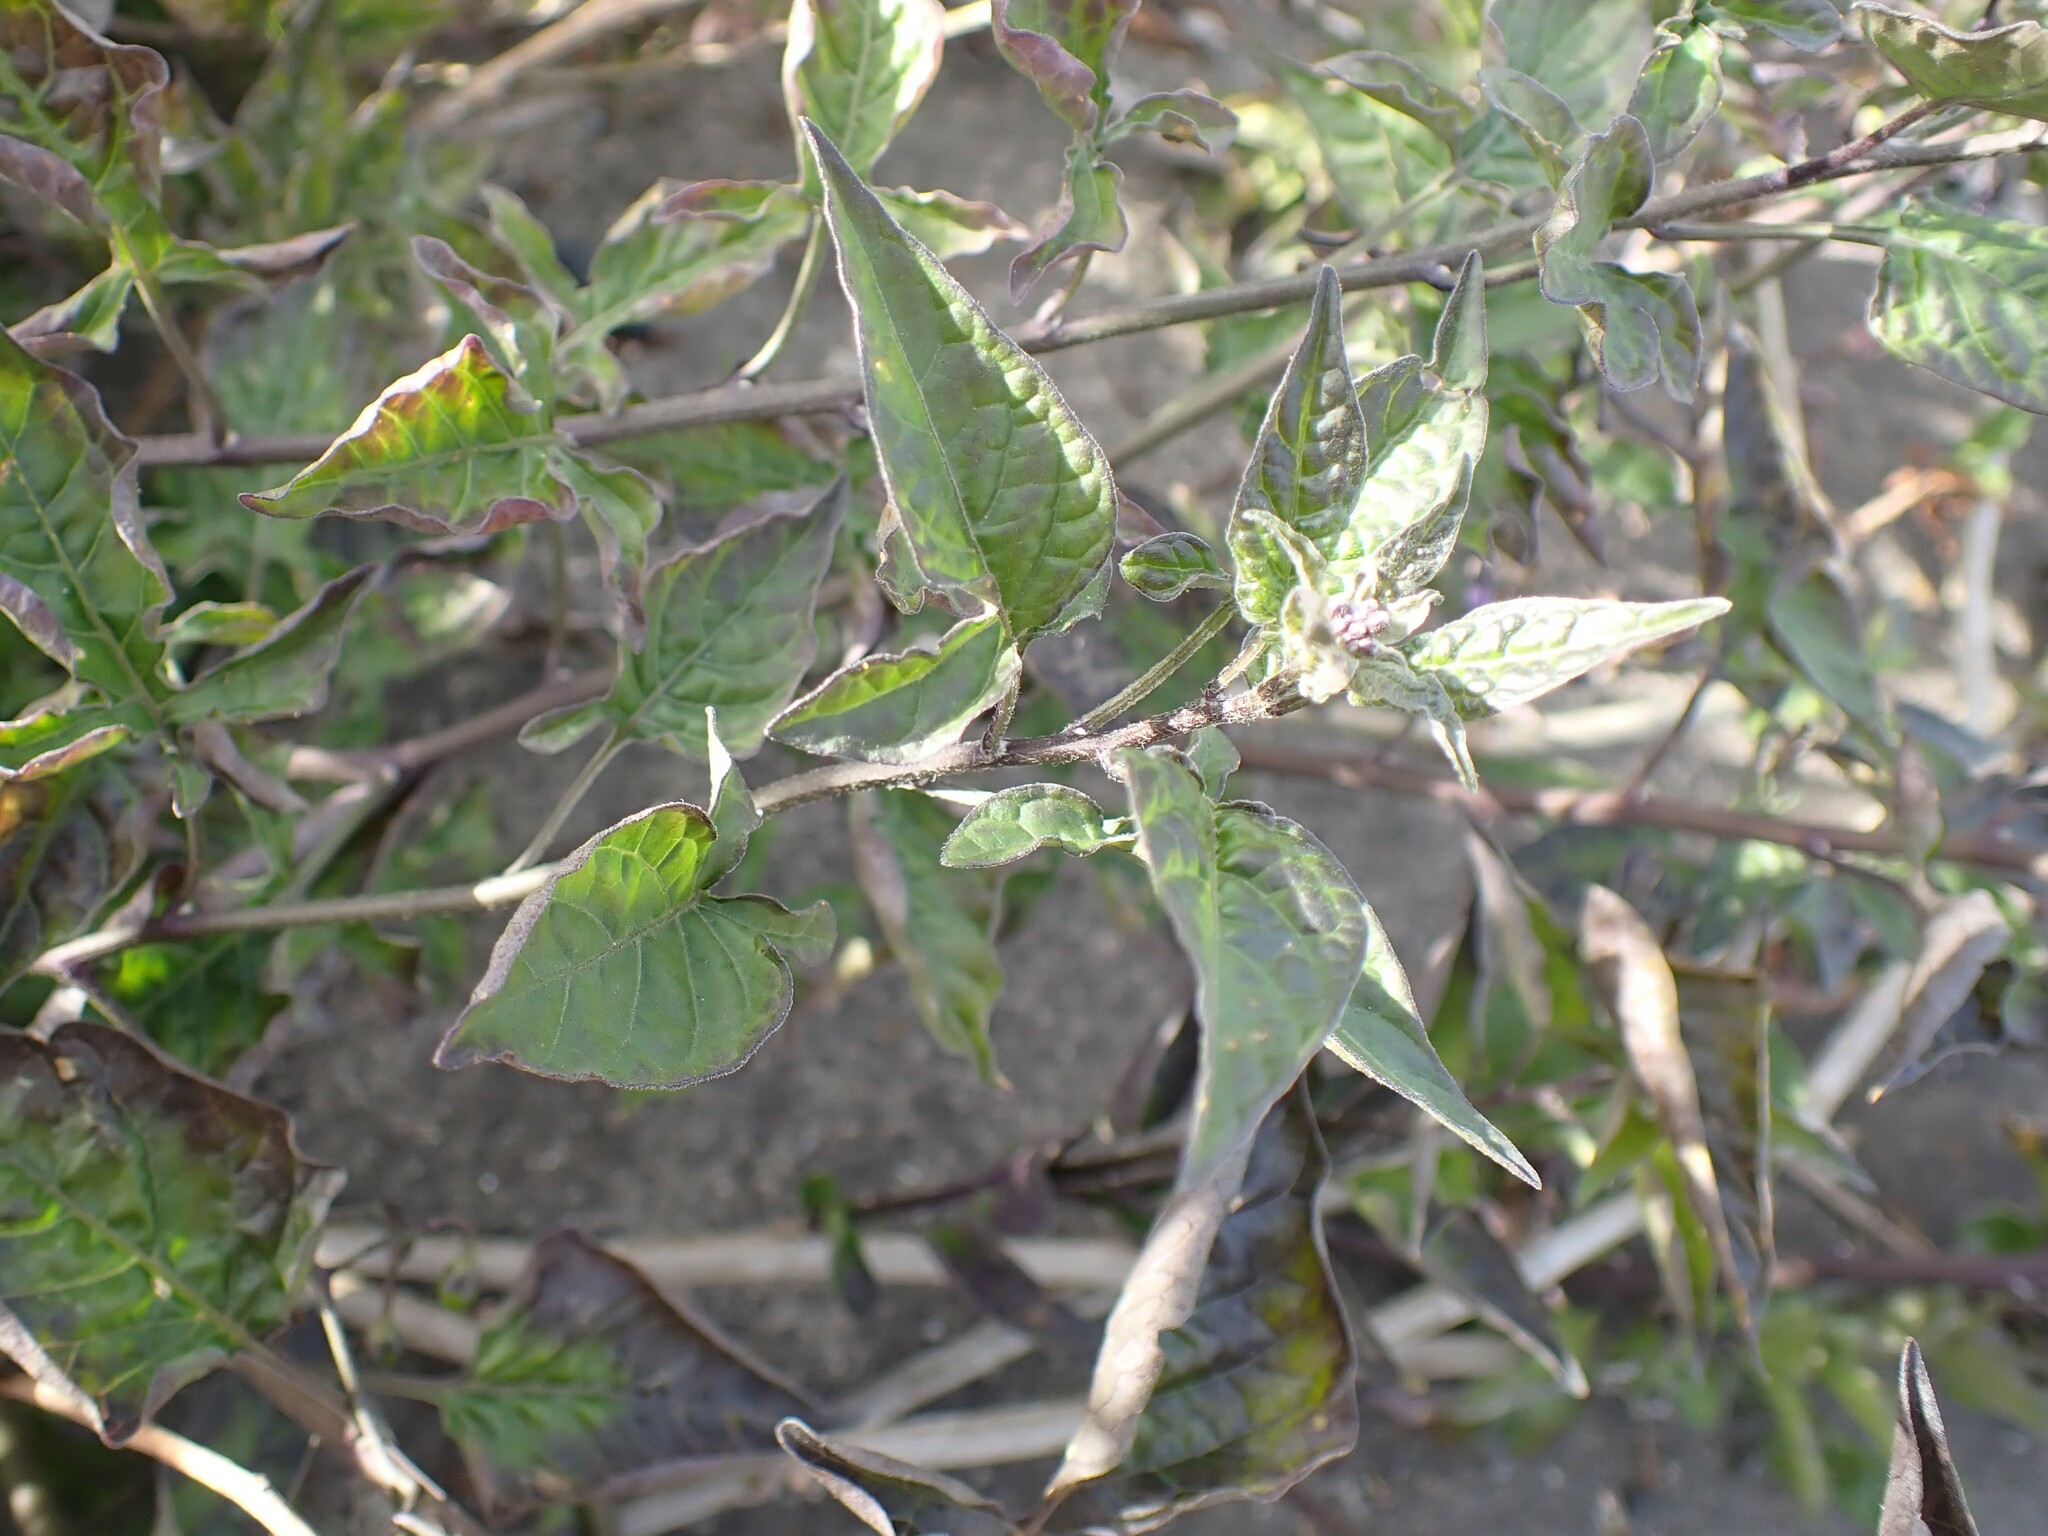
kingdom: Plantae
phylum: Tracheophyta
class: Magnoliopsida
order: Solanales
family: Solanaceae
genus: Solanum
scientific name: Solanum dulcamara
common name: Climbing nightshade
